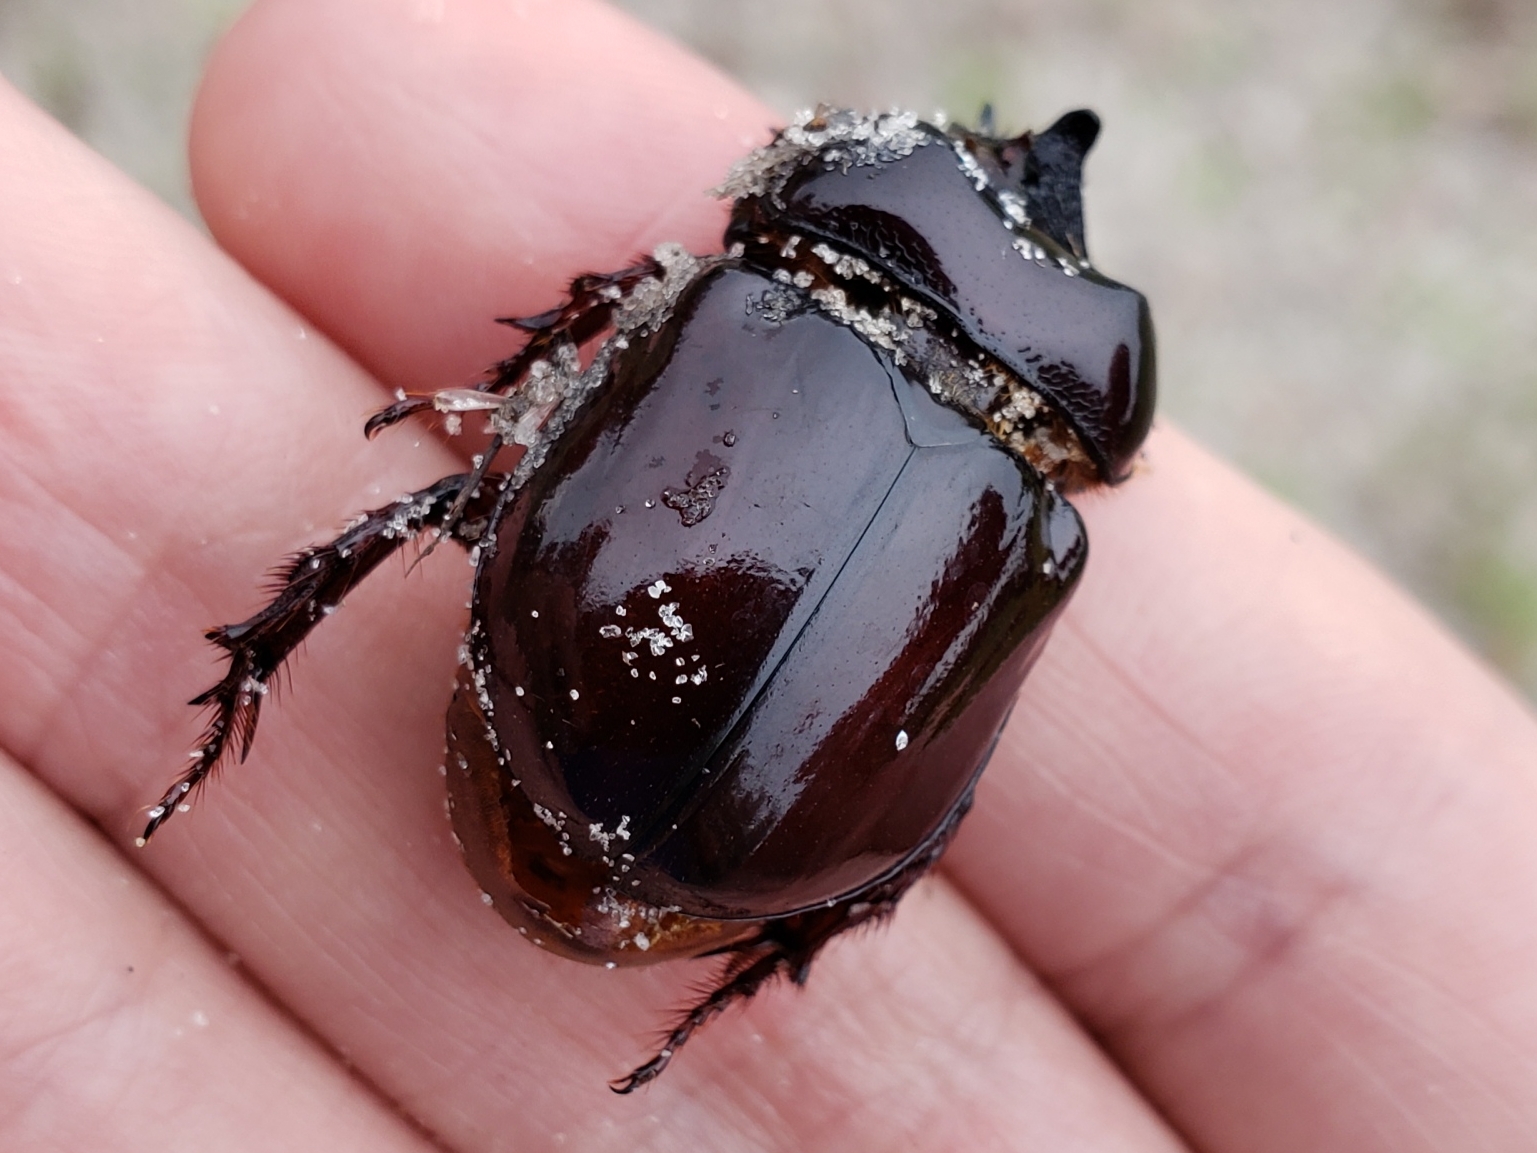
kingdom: Animalia
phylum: Arthropoda
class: Insecta
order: Coleoptera
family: Scarabaeidae
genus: Strategus
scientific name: Strategus antaeus
